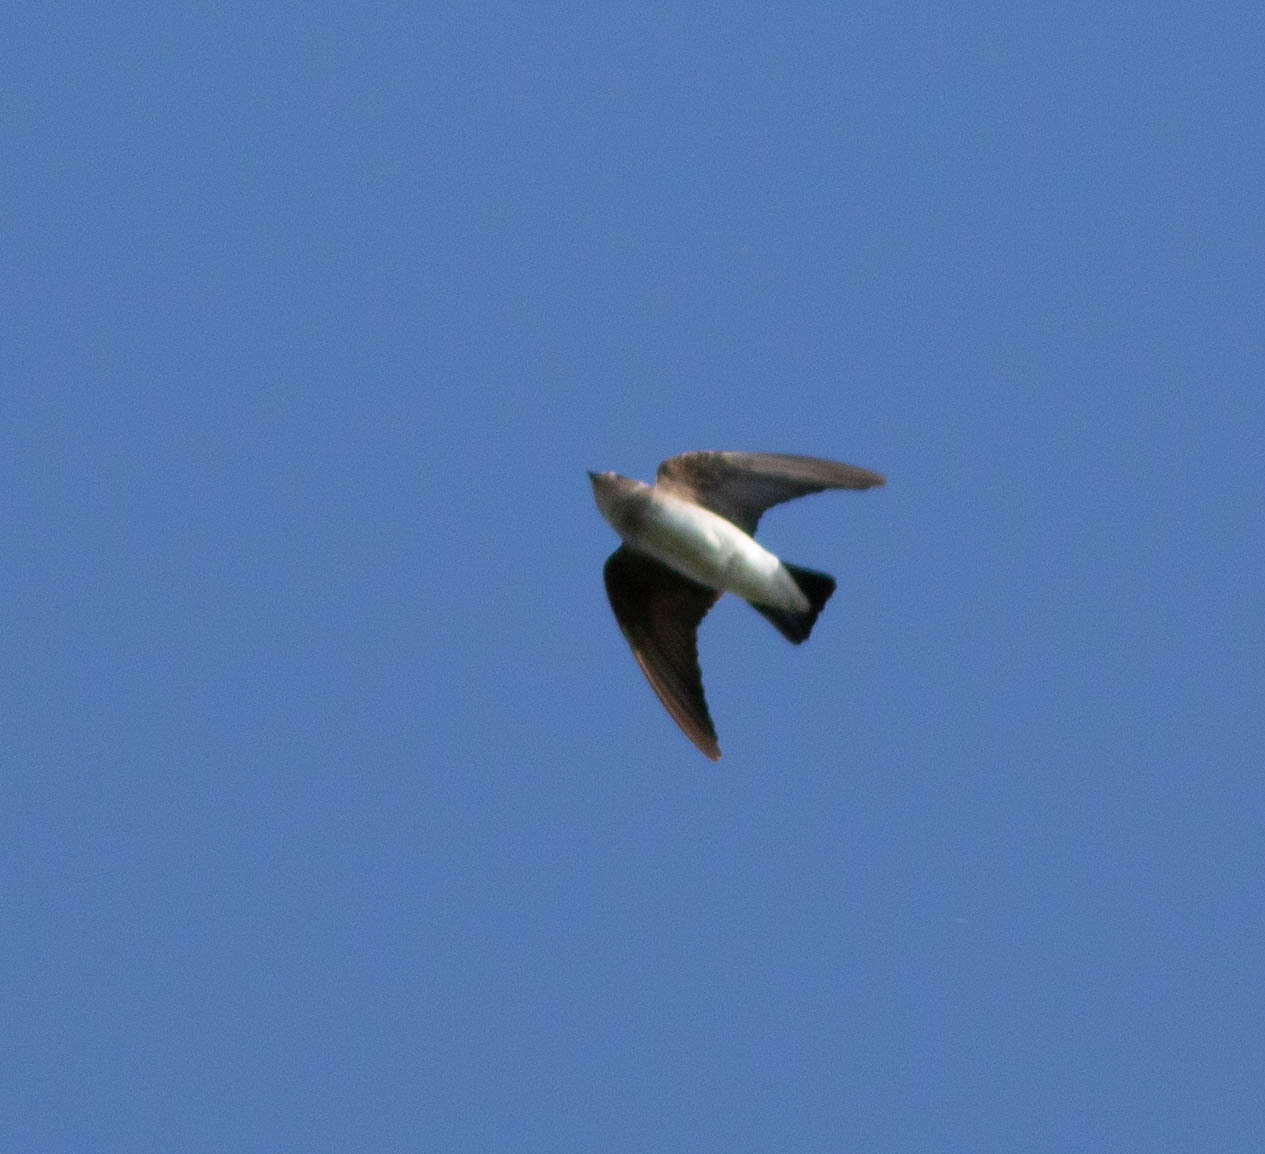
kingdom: Animalia
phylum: Chordata
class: Aves
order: Passeriformes
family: Hirundinidae
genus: Stelgidopteryx
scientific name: Stelgidopteryx serripennis
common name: Northern rough-winged swallow
